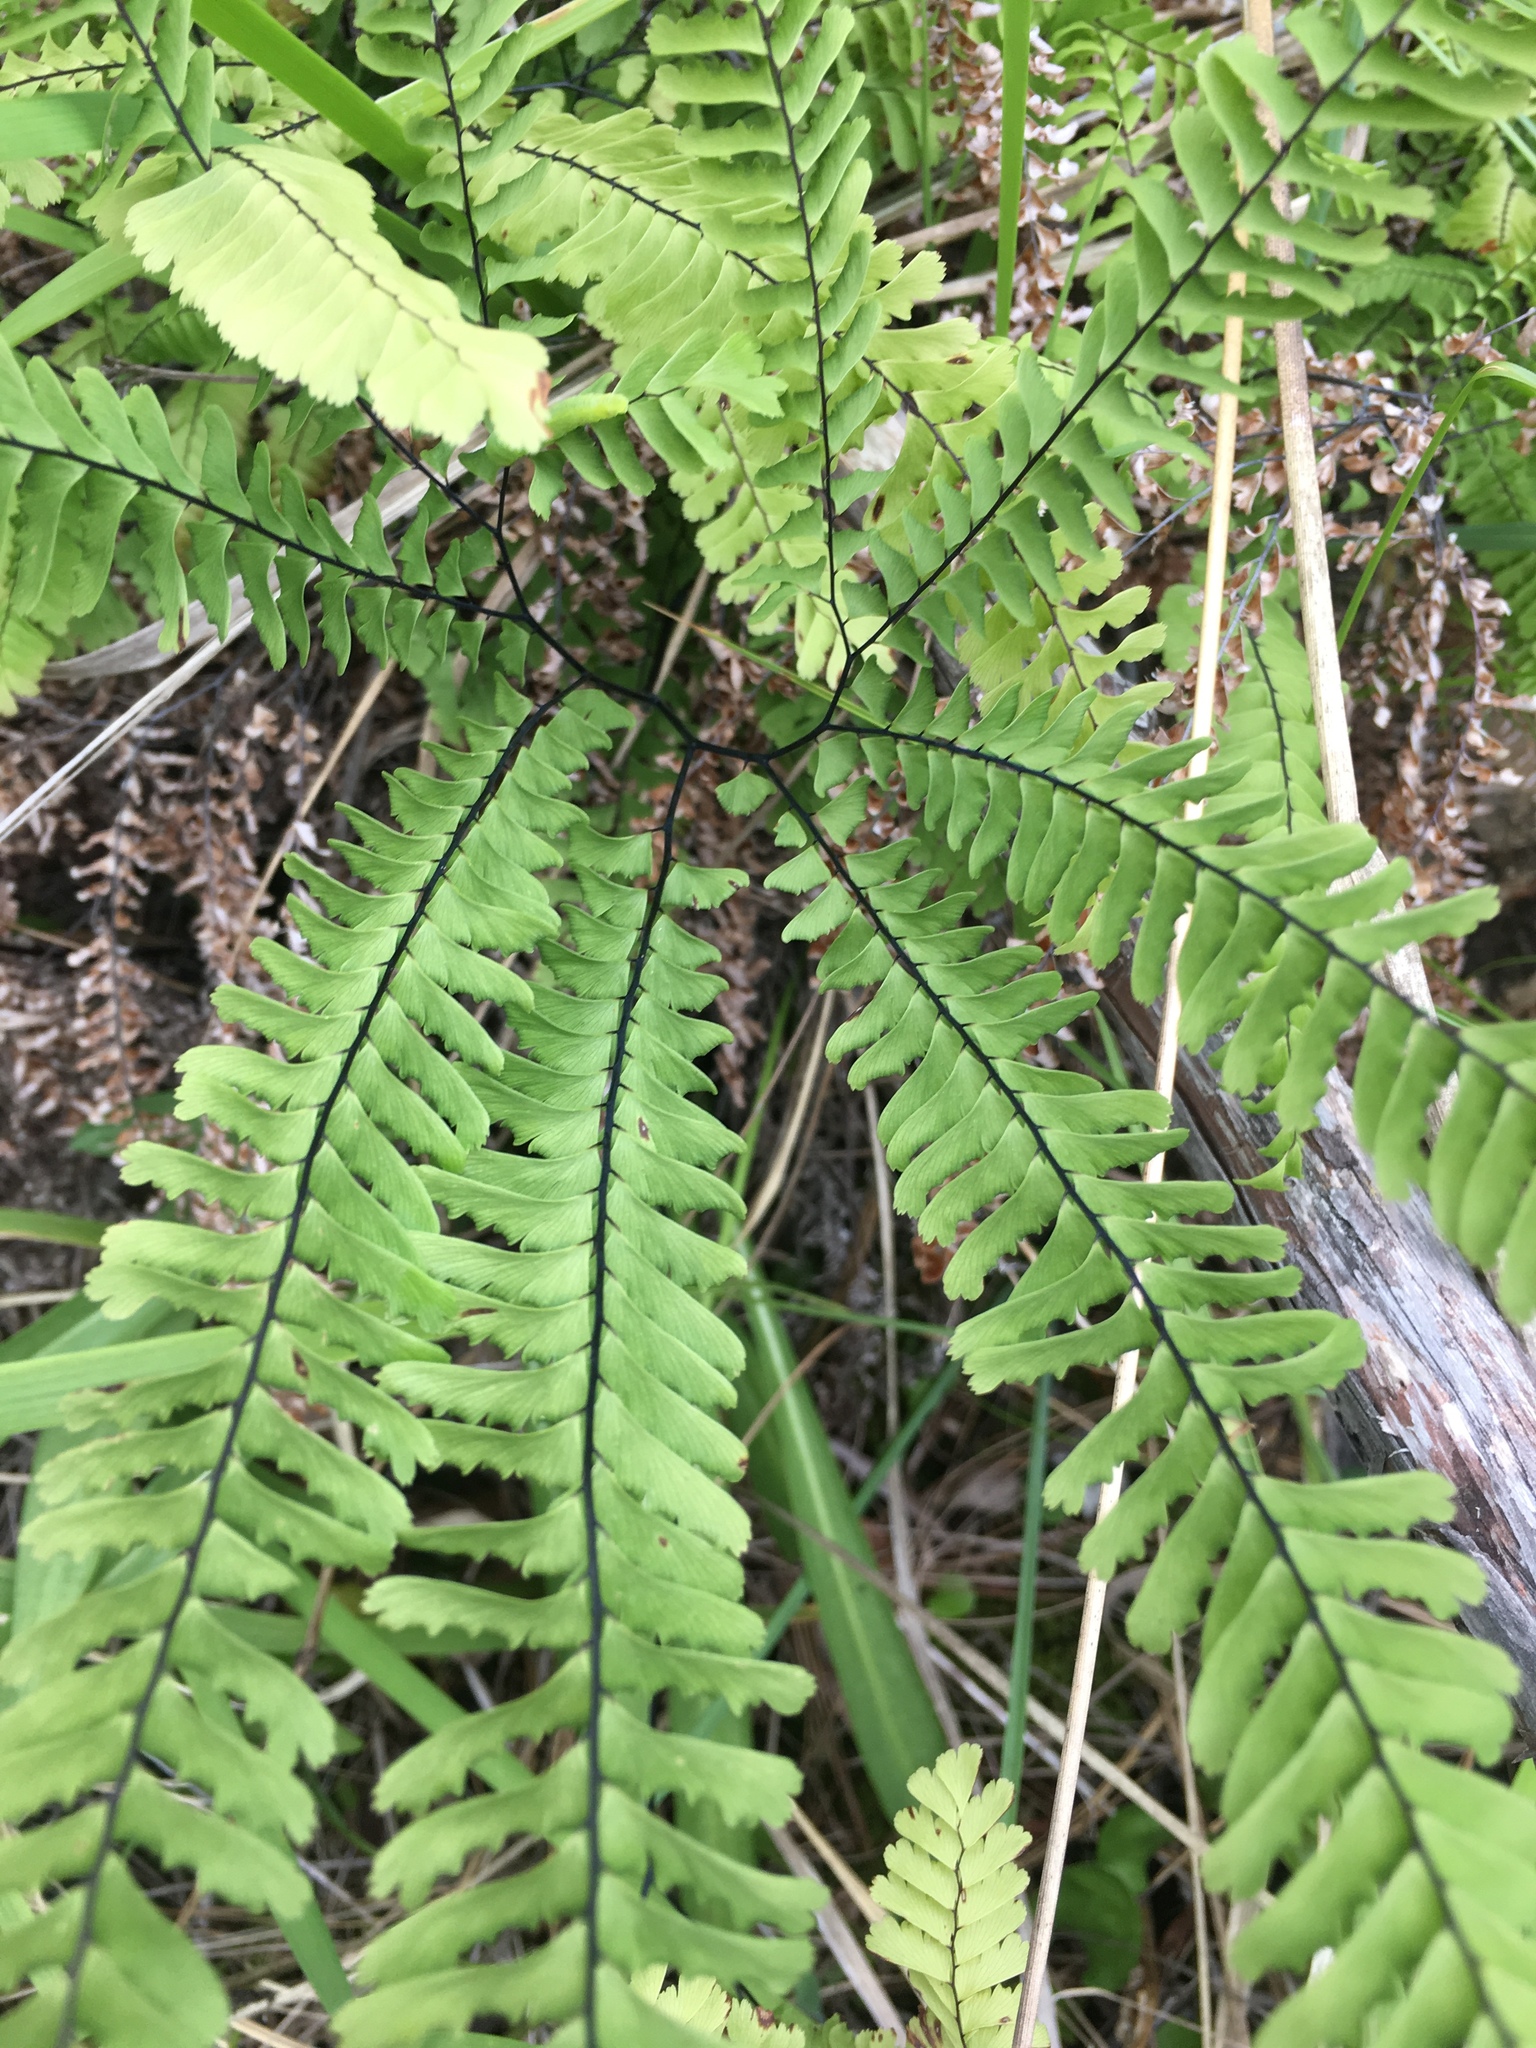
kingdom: Plantae
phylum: Tracheophyta
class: Polypodiopsida
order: Polypodiales
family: Pteridaceae
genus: Adiantum
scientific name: Adiantum aleuticum
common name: Aleutian maidenhair fern
